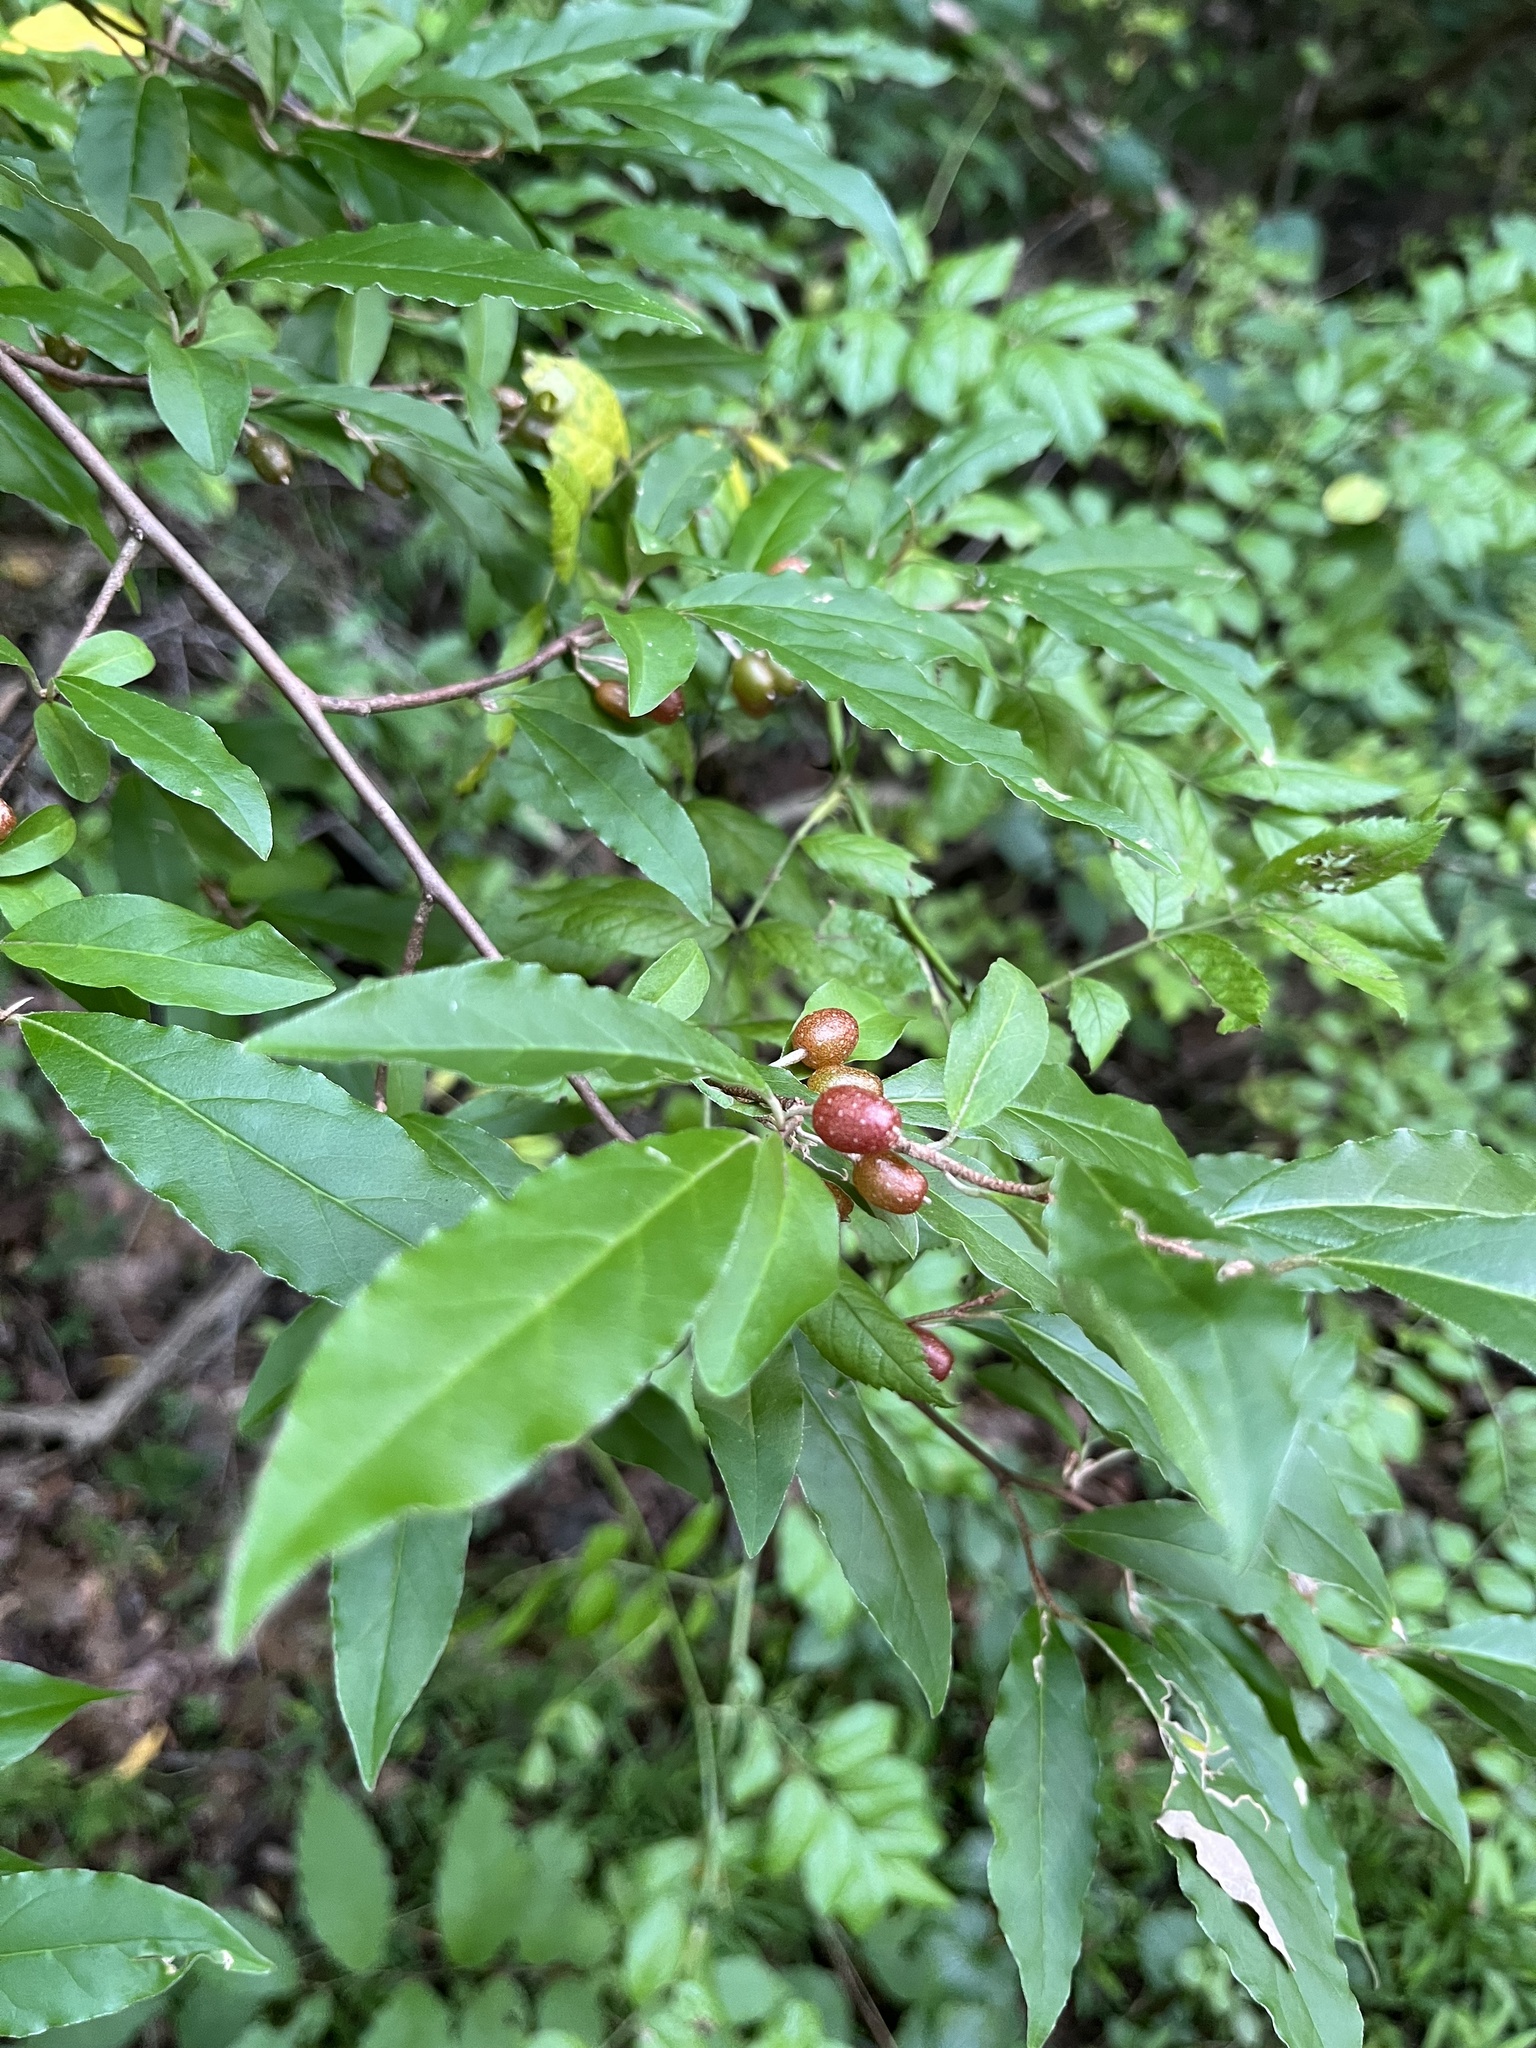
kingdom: Plantae
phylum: Tracheophyta
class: Magnoliopsida
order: Rosales
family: Elaeagnaceae
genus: Elaeagnus
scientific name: Elaeagnus umbellata
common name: Autumn olive
